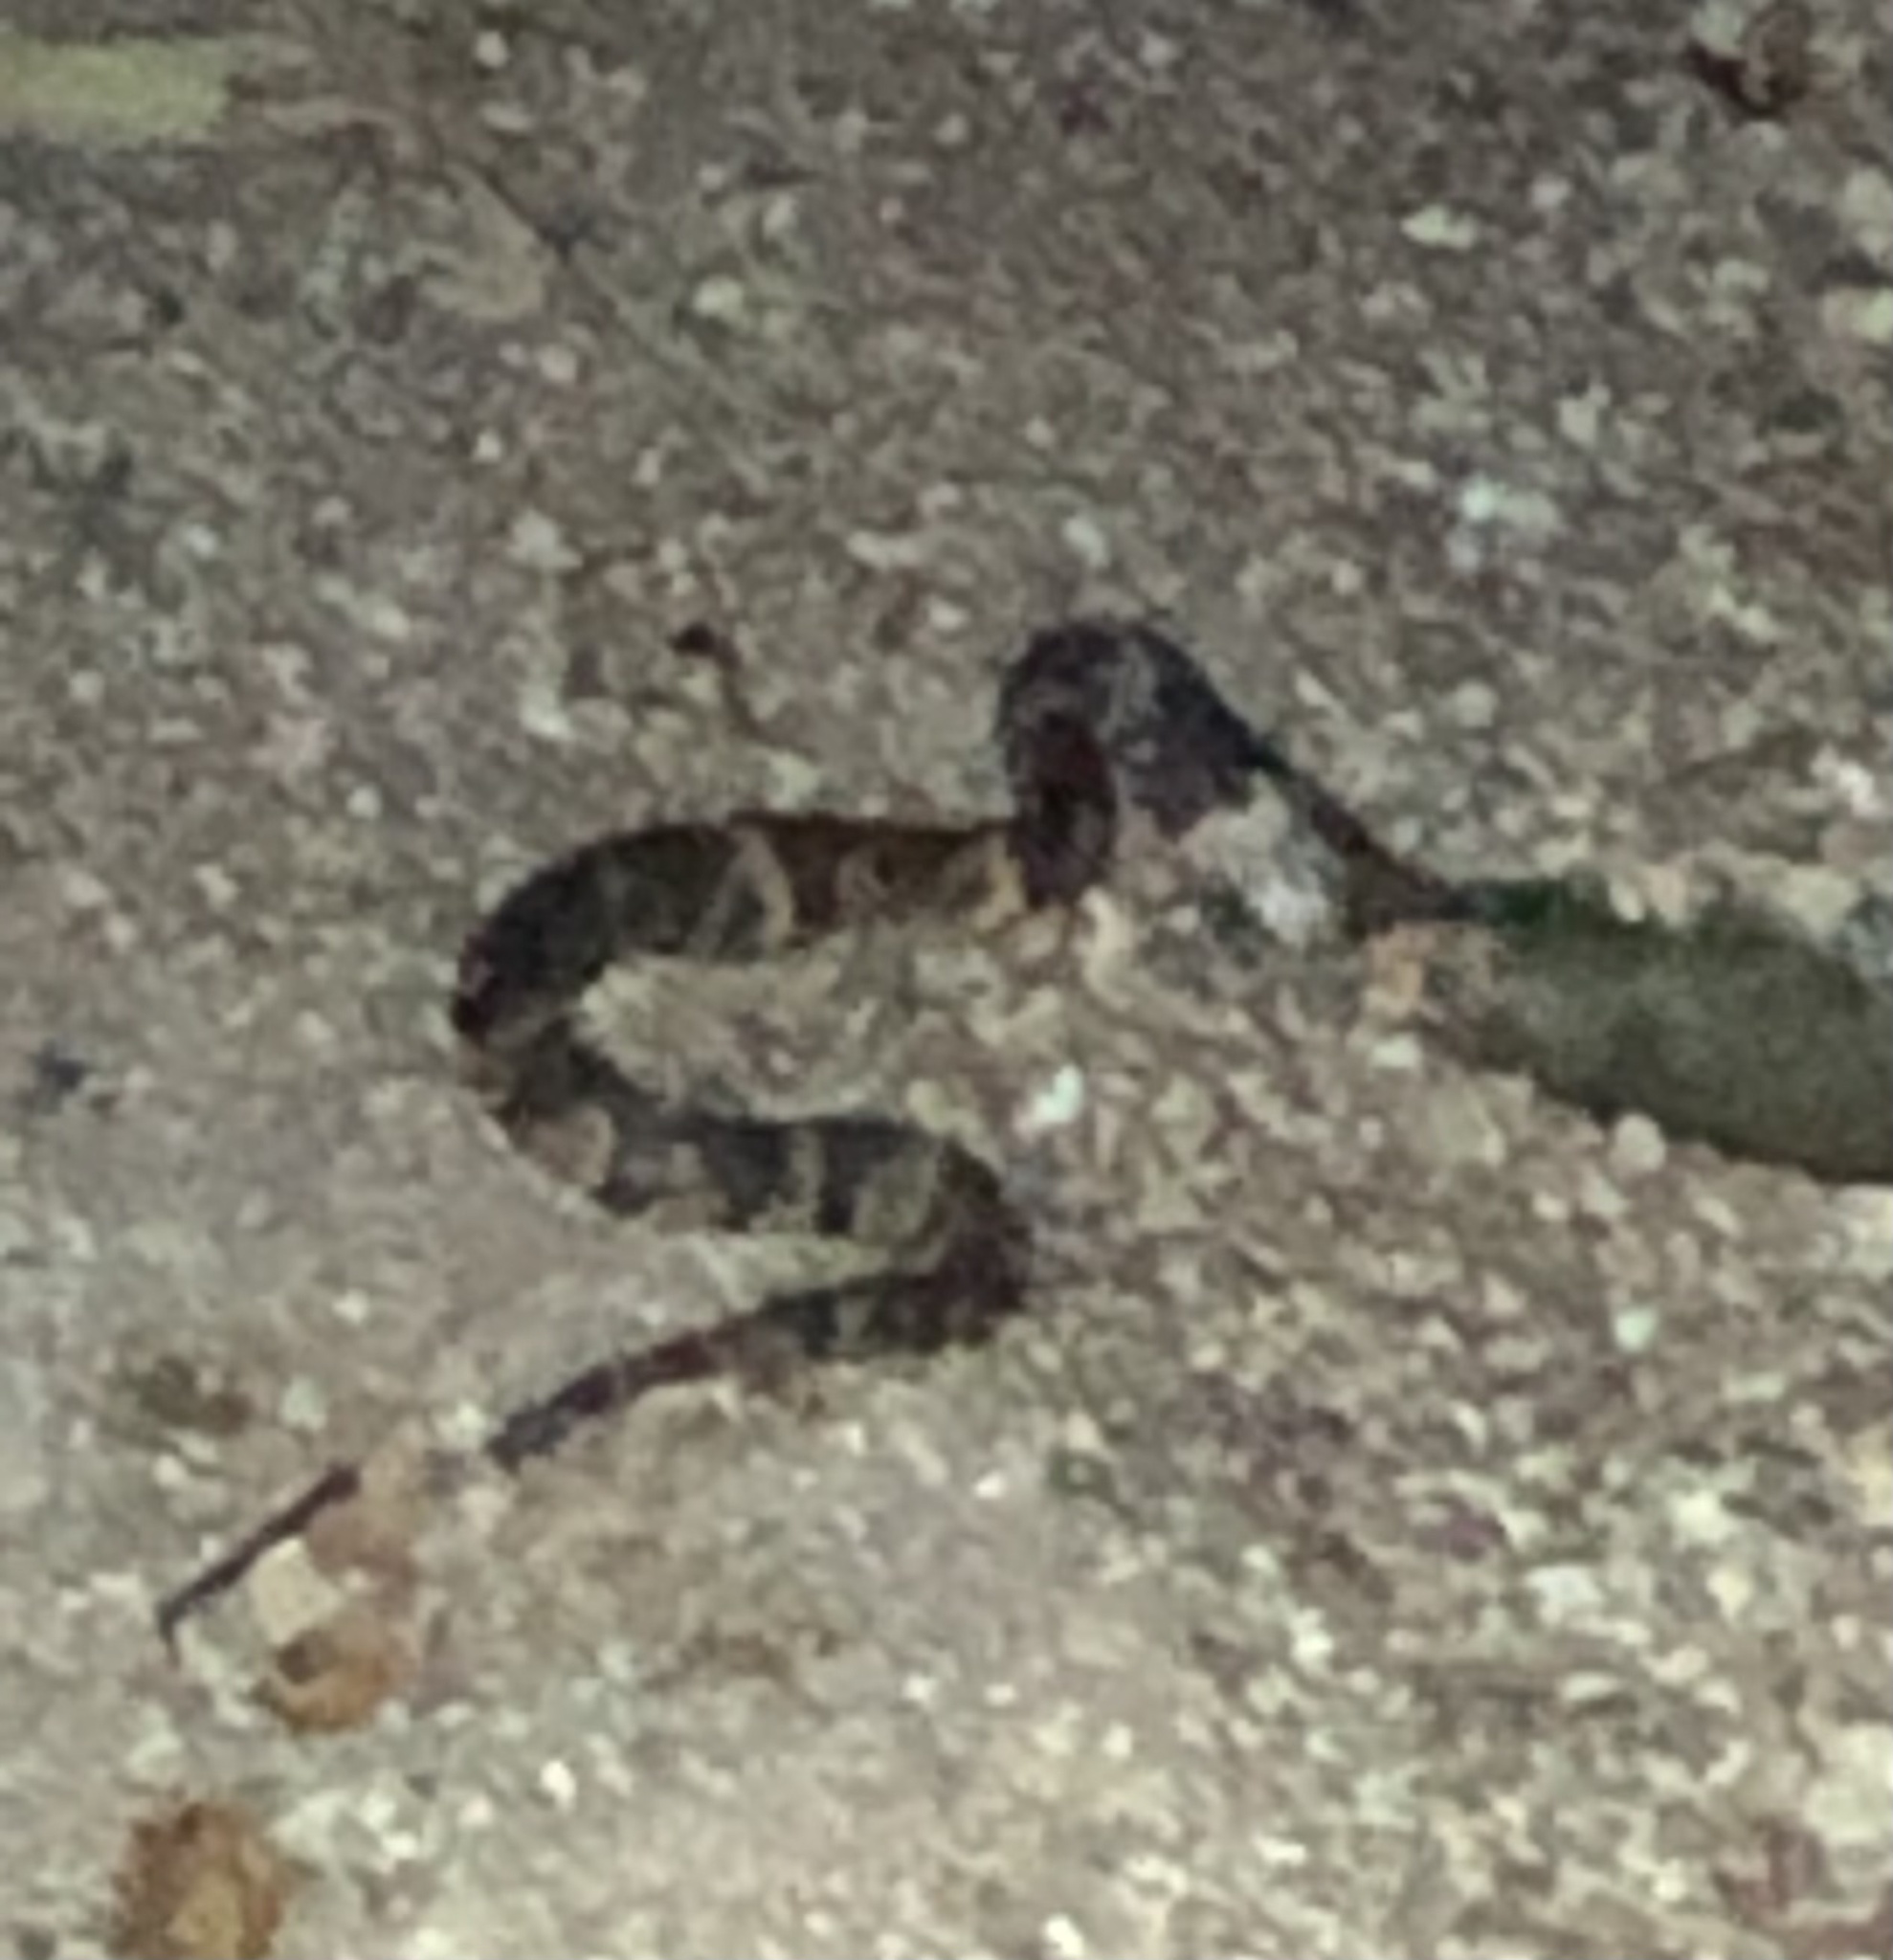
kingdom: Animalia
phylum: Chordata
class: Squamata
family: Colubridae
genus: Nerodia
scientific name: Nerodia fasciata
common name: Southern water snake
